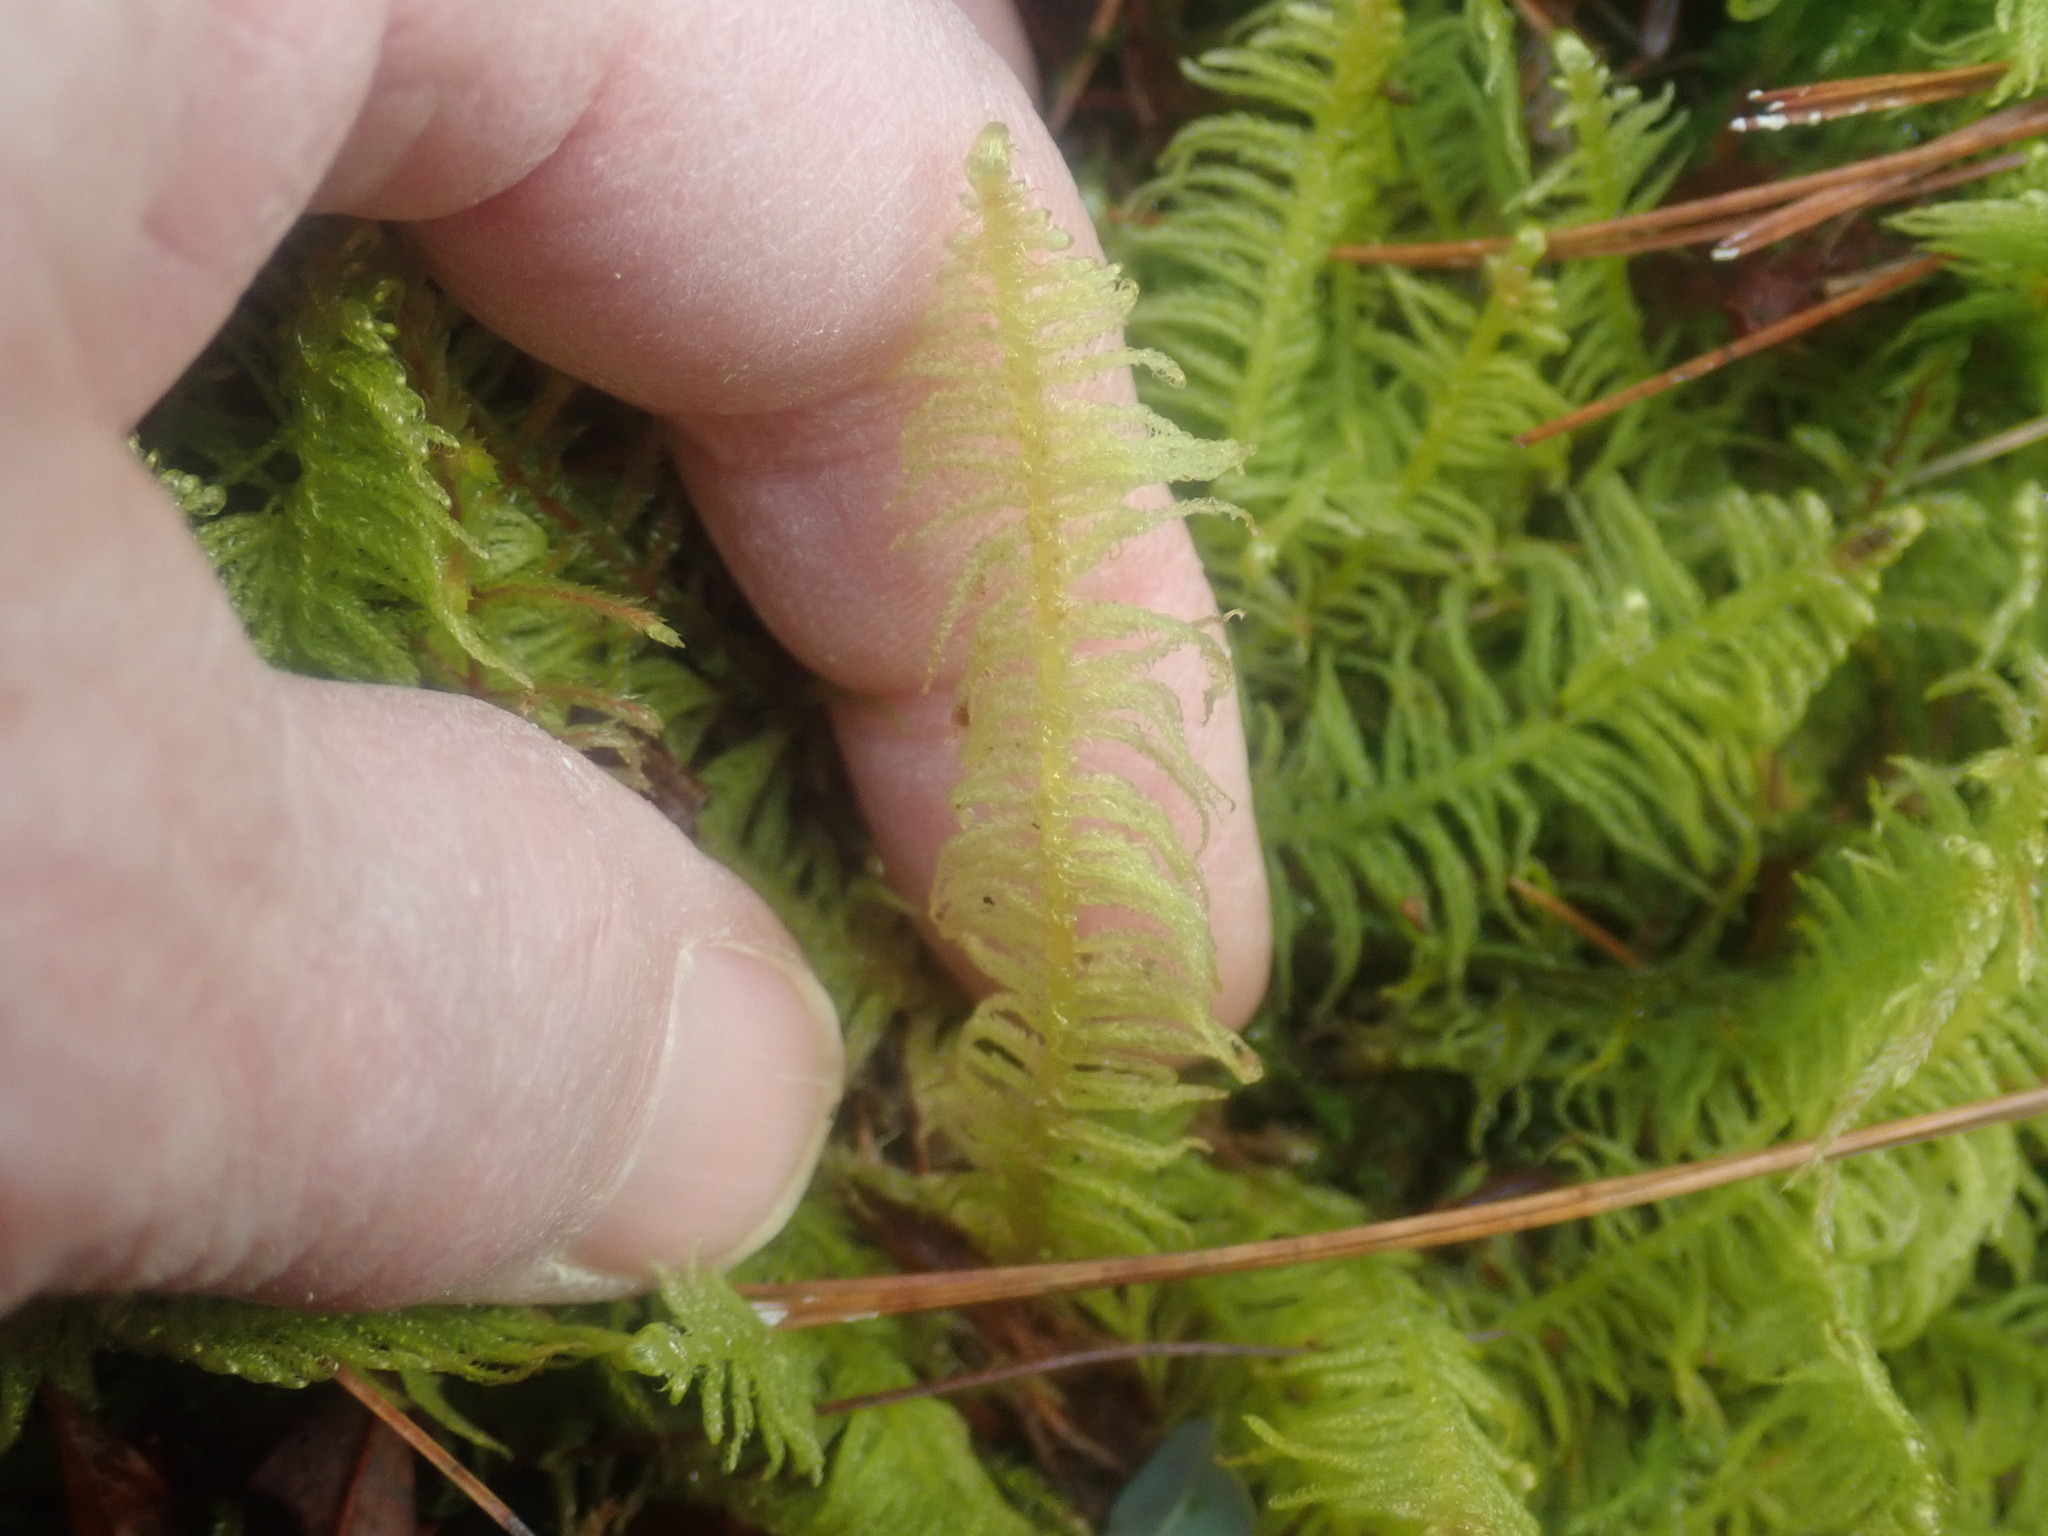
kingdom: Plantae
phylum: Bryophyta
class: Bryopsida
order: Hypnales
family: Pylaisiaceae
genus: Ptilium
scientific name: Ptilium crista-castrensis
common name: Knight's plume moss
